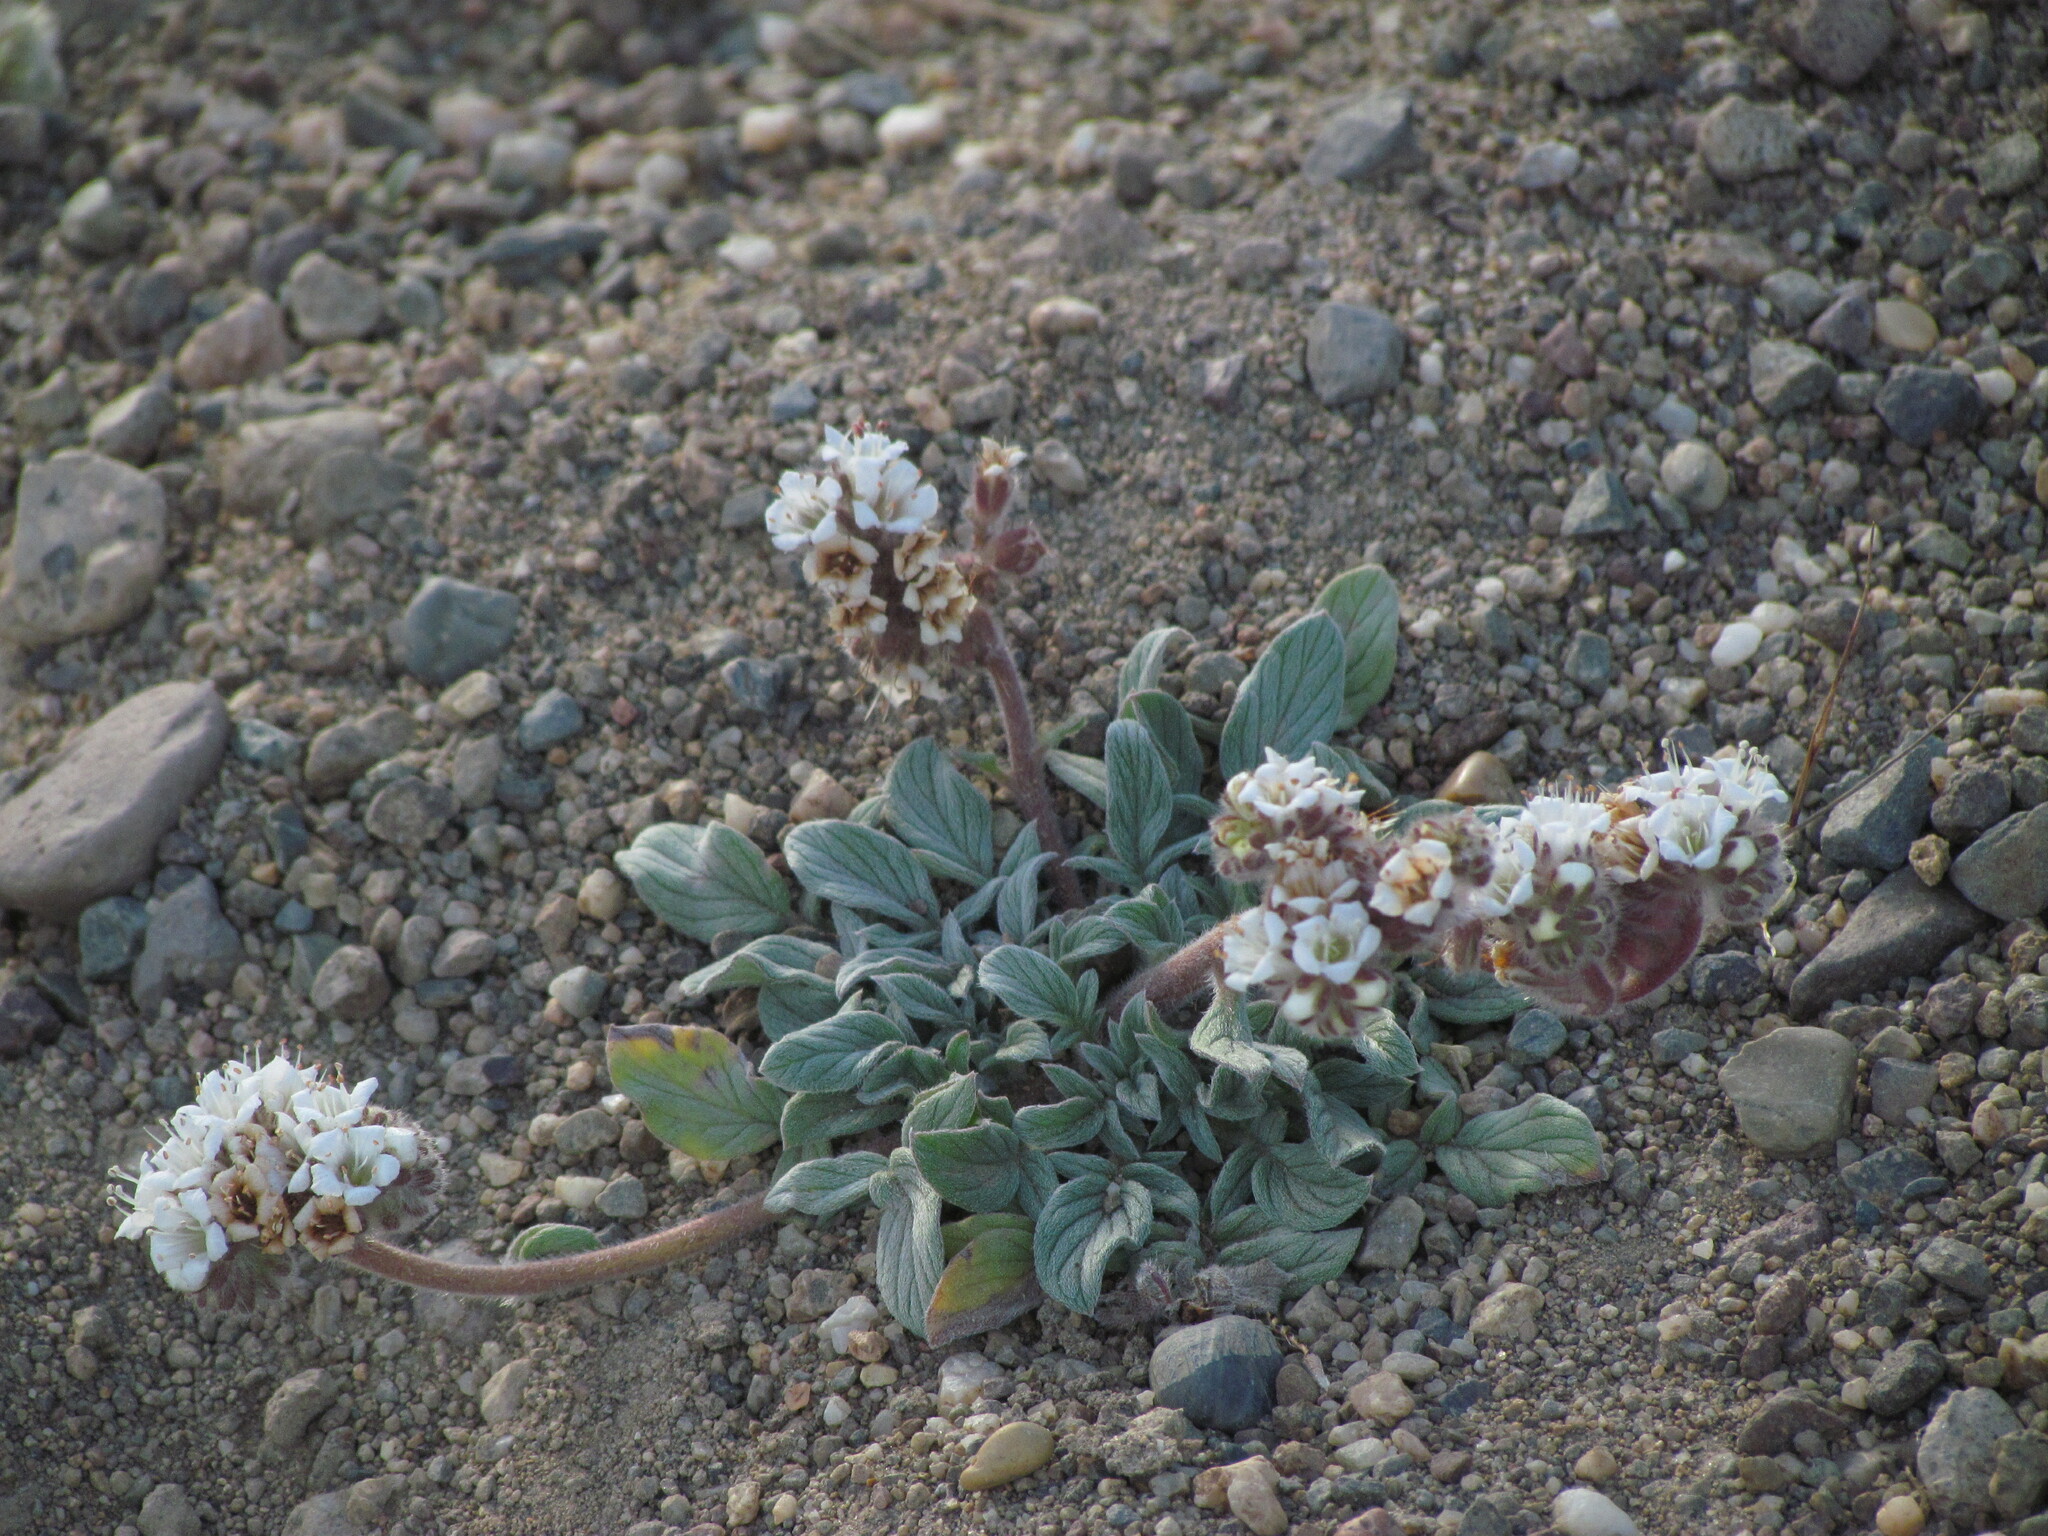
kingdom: Plantae
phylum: Tracheophyta
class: Magnoliopsida
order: Boraginales
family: Hydrophyllaceae
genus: Phacelia
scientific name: Phacelia secunda
